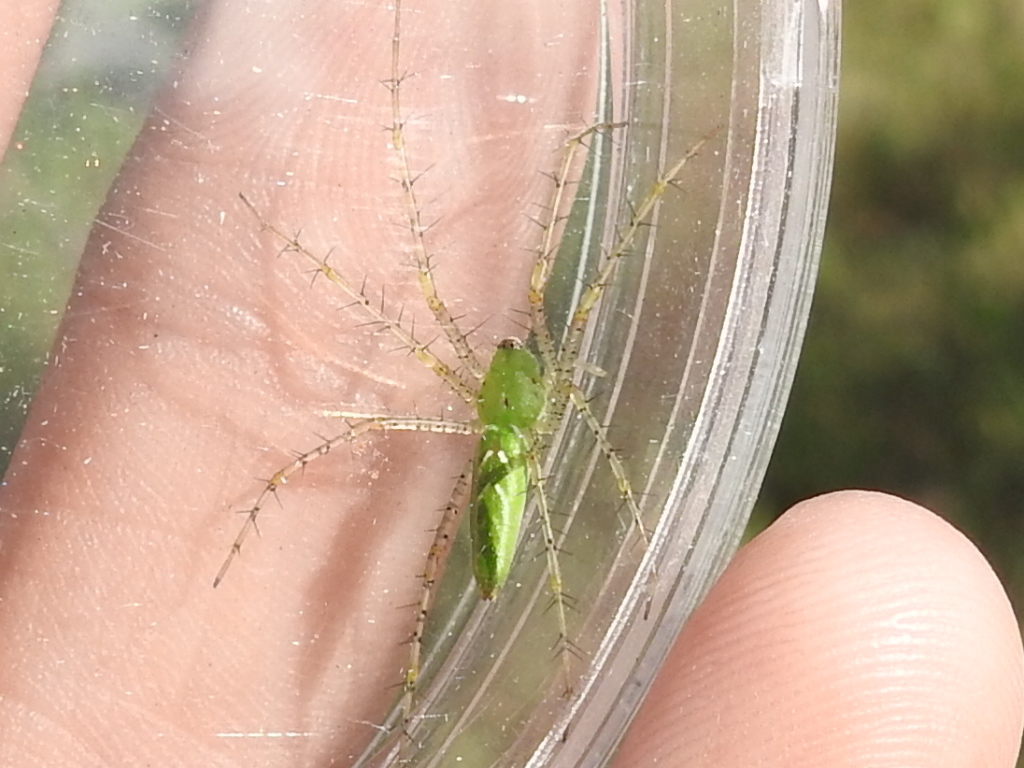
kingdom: Animalia
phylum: Arthropoda
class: Arachnida
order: Araneae
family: Oxyopidae
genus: Peucetia
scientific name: Peucetia viridans
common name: Lynx spiders
